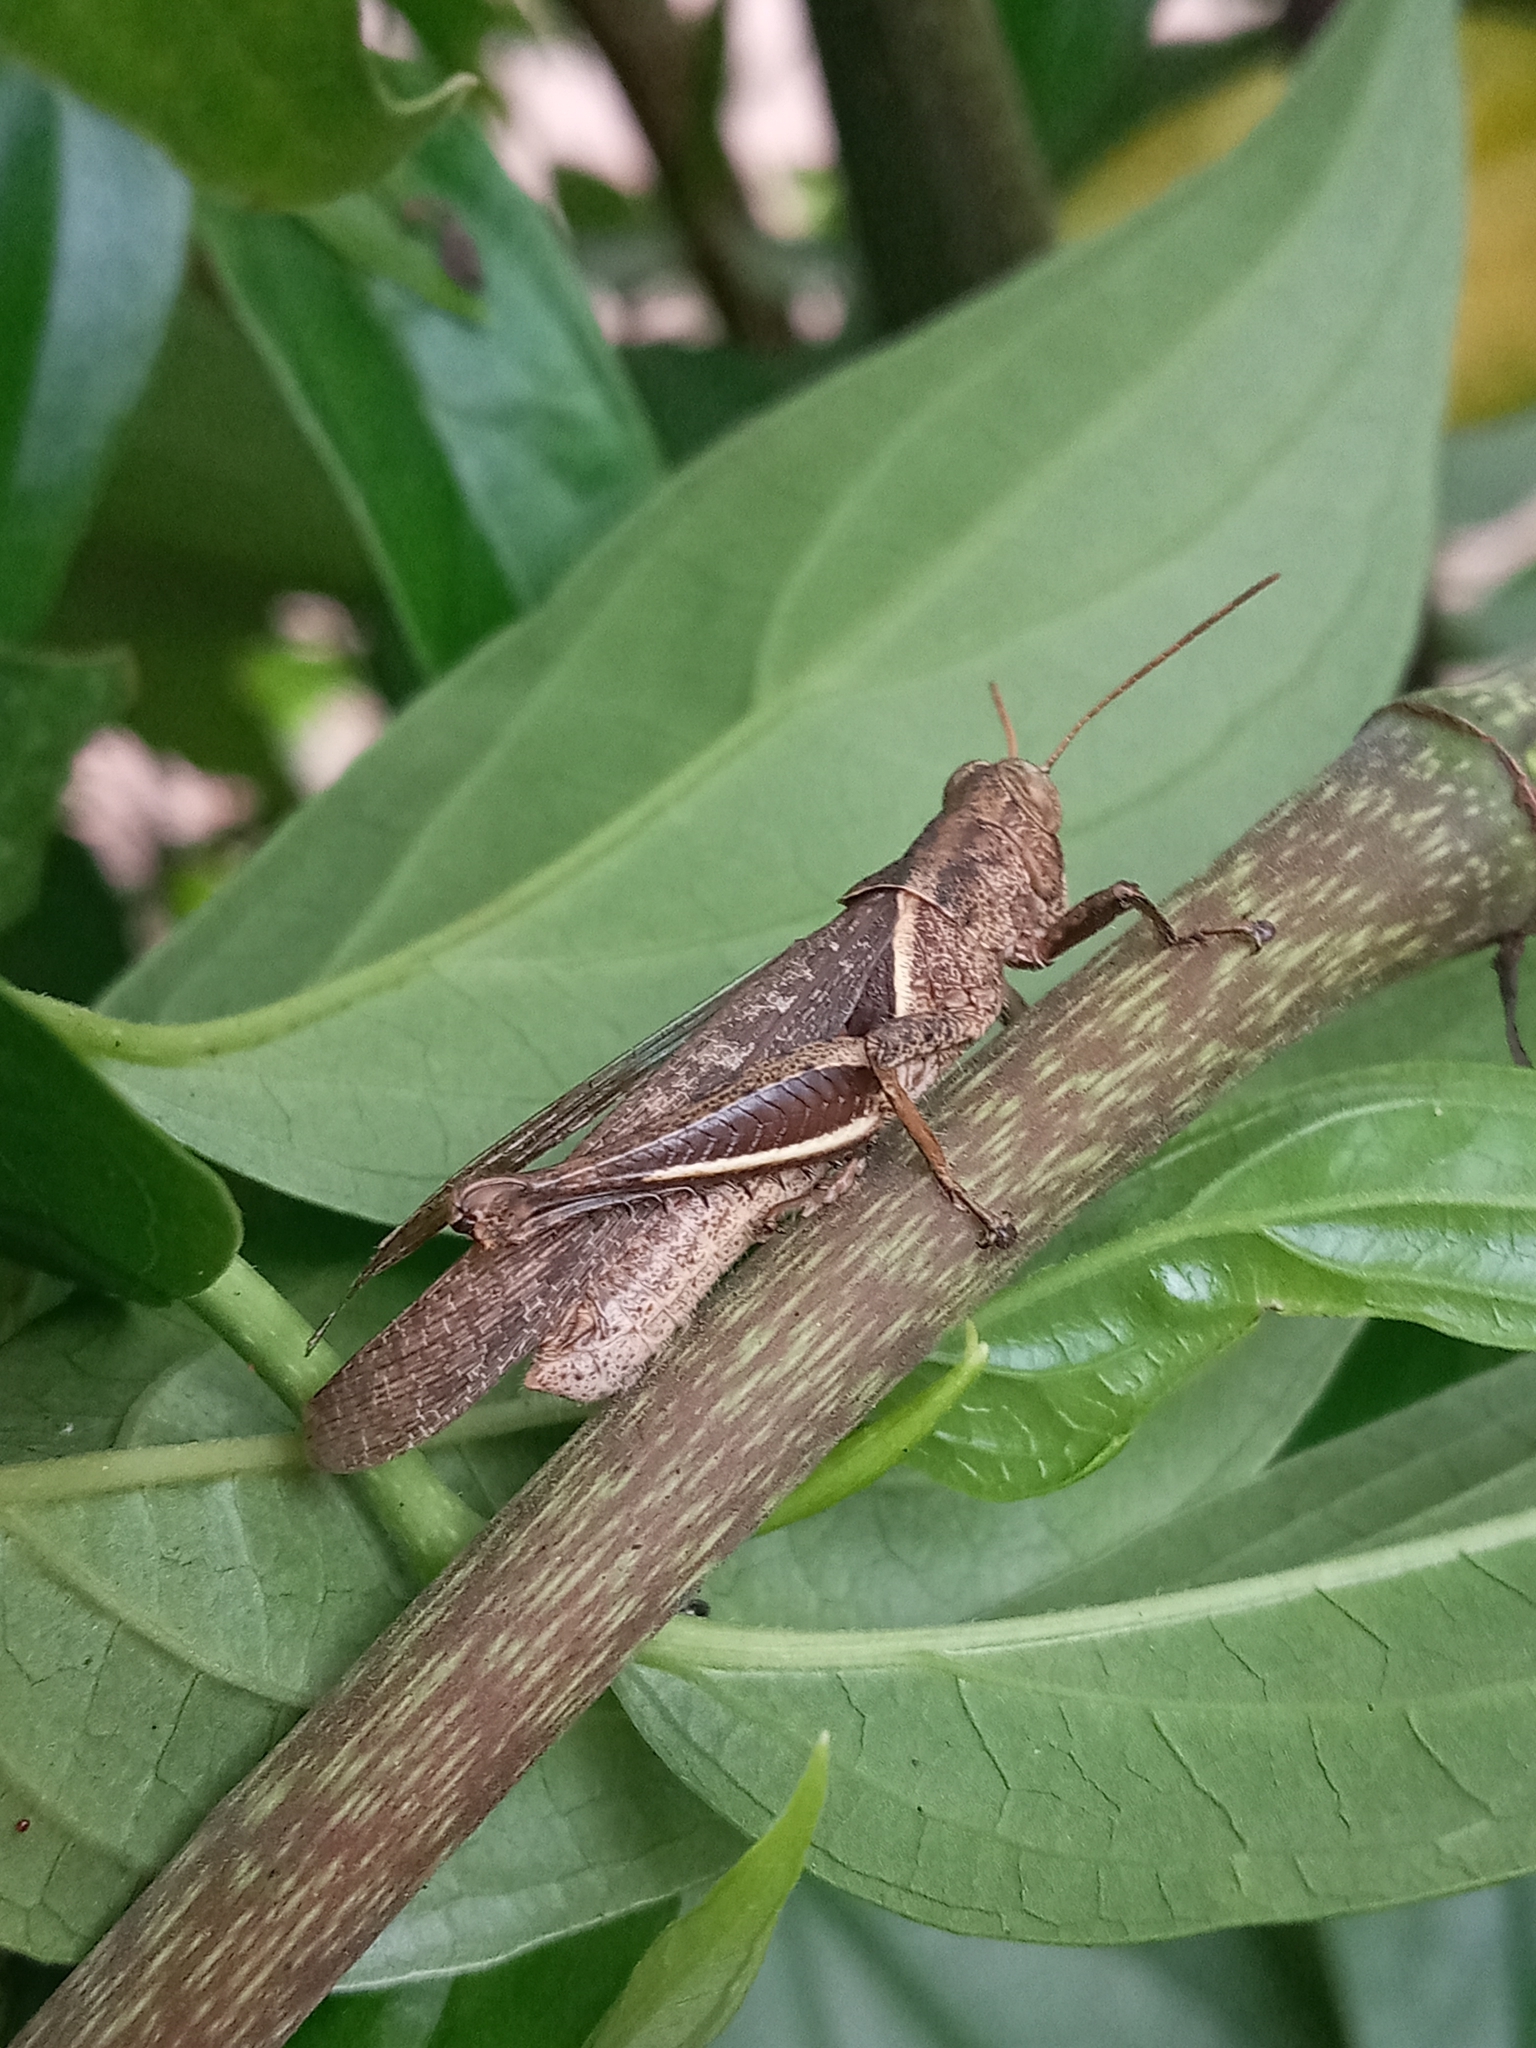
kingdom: Animalia
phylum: Arthropoda
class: Insecta
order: Orthoptera
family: Acrididae
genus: Abracris
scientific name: Abracris flavolineata
